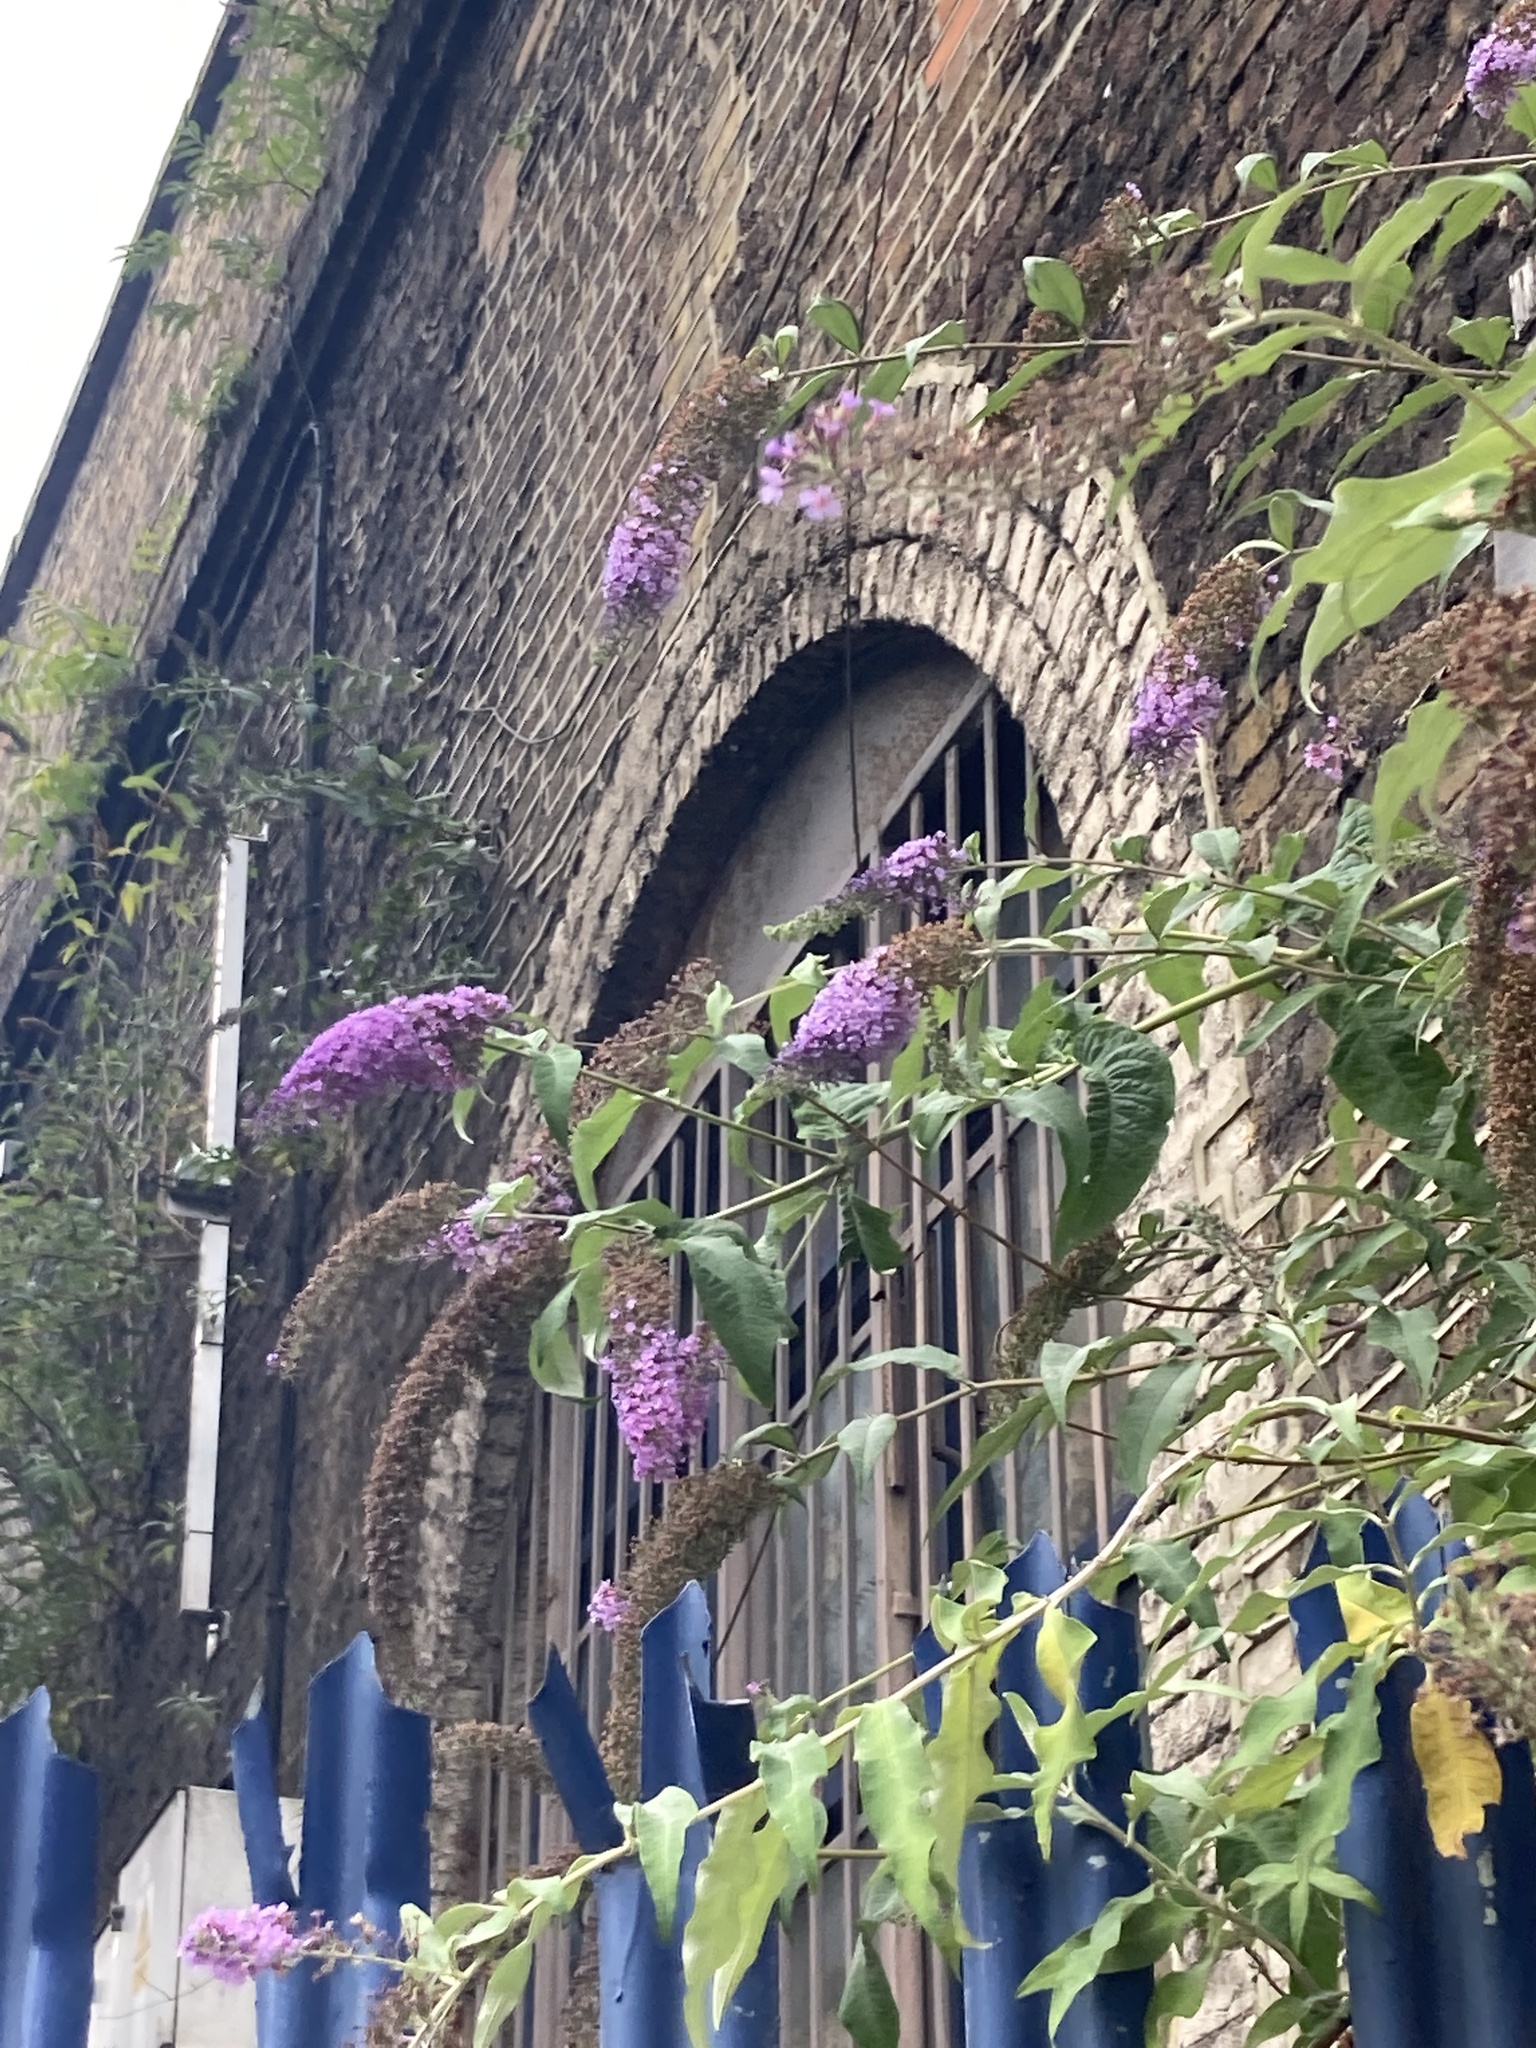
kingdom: Plantae
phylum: Tracheophyta
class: Magnoliopsida
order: Lamiales
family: Scrophulariaceae
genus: Buddleja
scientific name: Buddleja davidii
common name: Butterfly-bush
